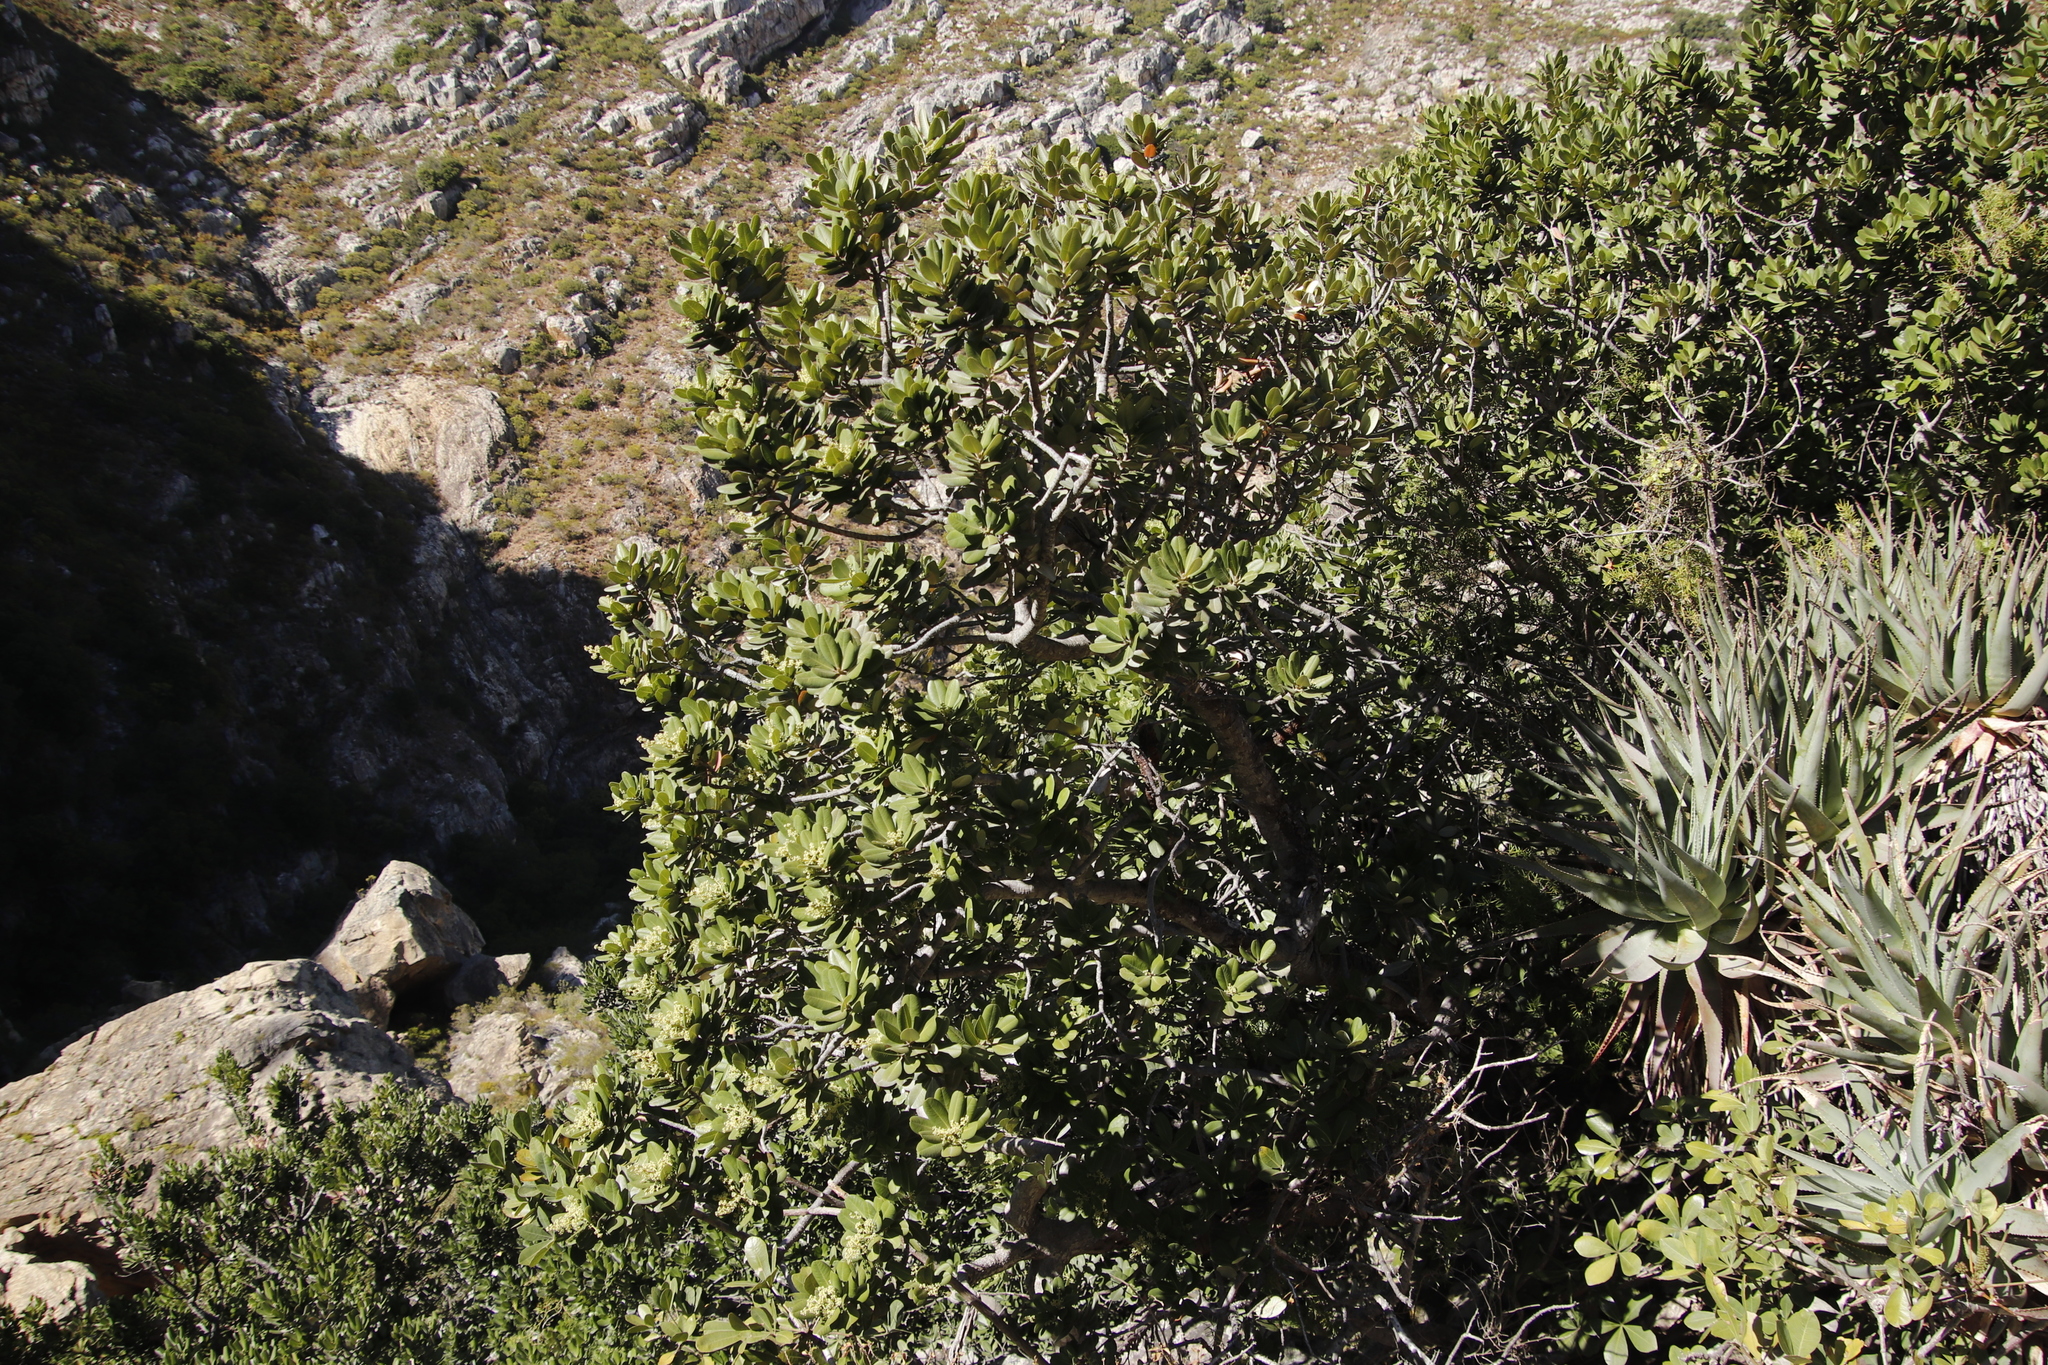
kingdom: Plantae
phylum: Tracheophyta
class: Magnoliopsida
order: Sapindales
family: Anacardiaceae
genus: Heeria
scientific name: Heeria argentea
